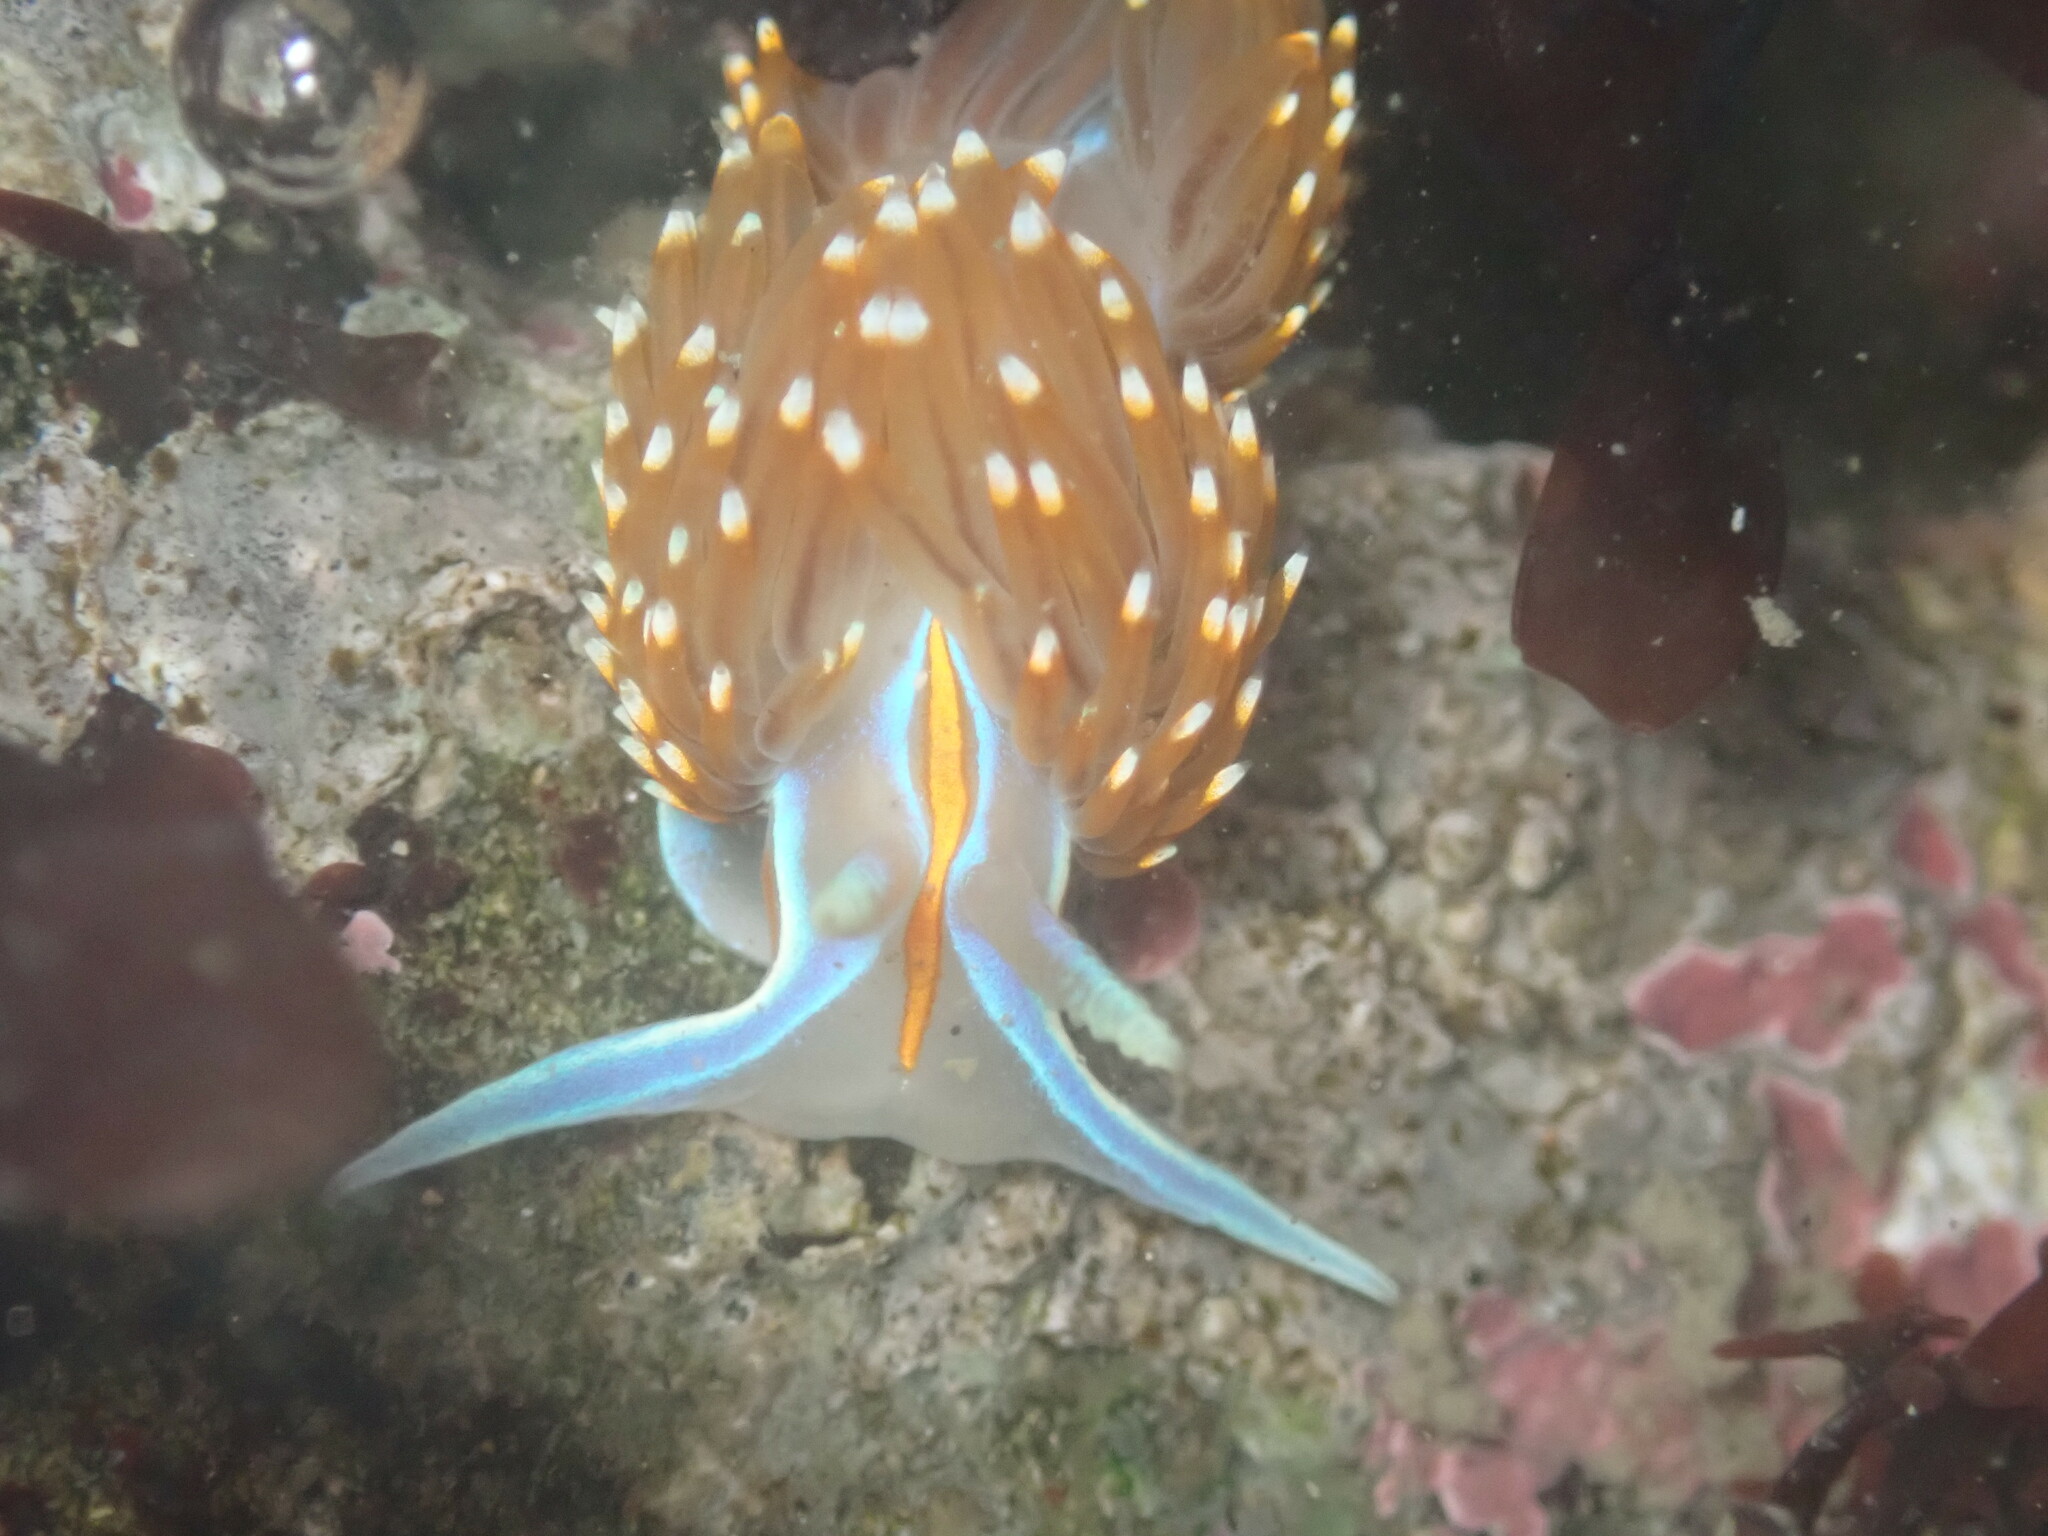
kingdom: Animalia
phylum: Mollusca
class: Gastropoda
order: Nudibranchia
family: Myrrhinidae
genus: Hermissenda
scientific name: Hermissenda opalescens
